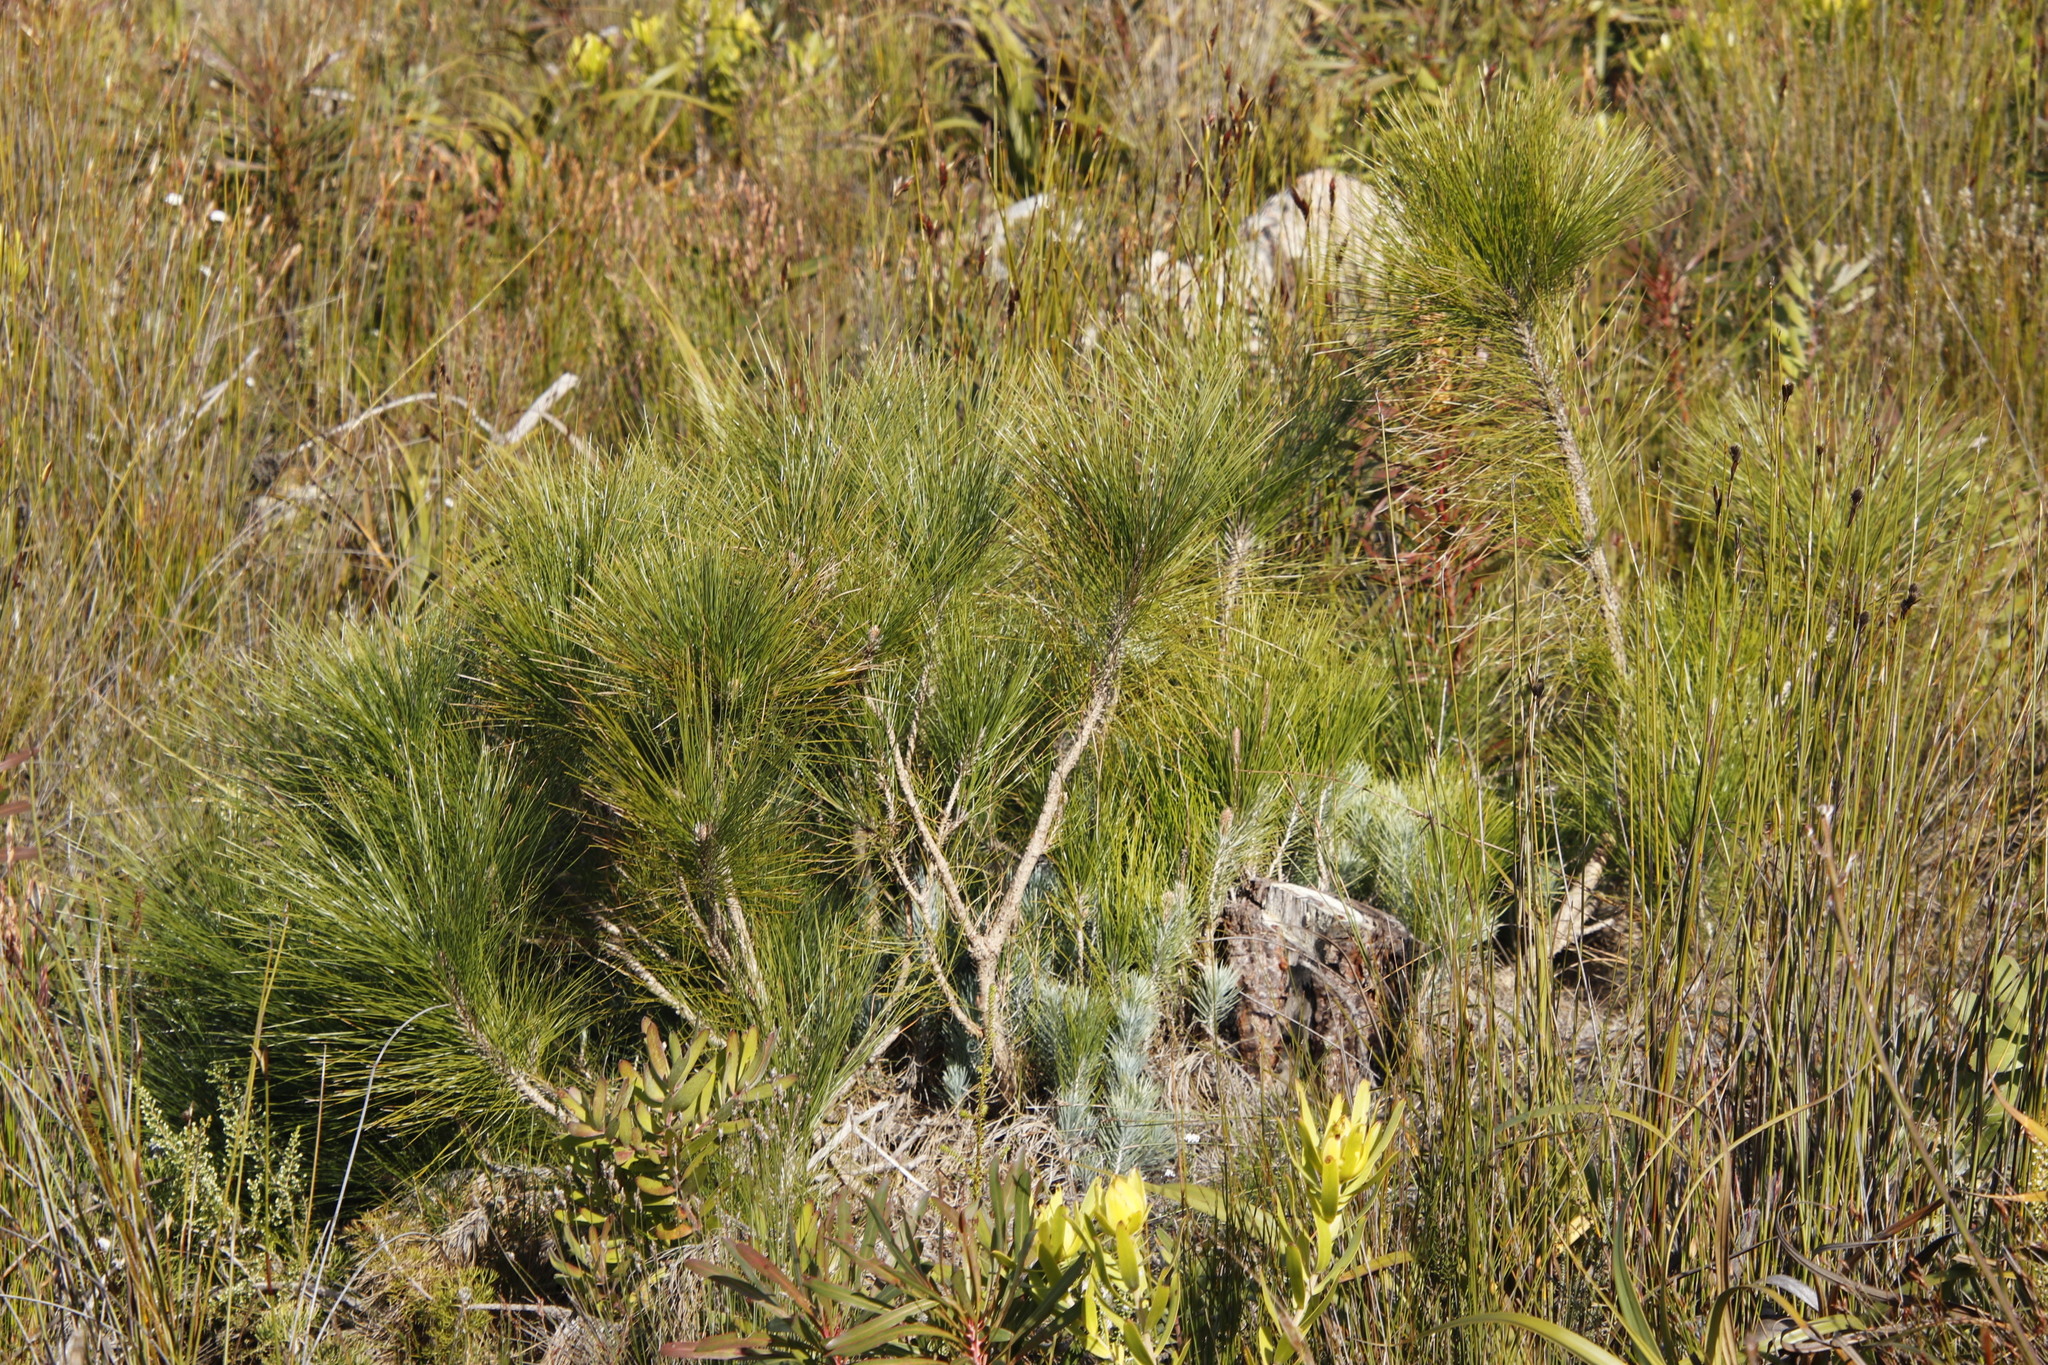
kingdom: Plantae
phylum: Tracheophyta
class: Pinopsida
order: Pinales
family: Pinaceae
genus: Pinus
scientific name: Pinus canariensis
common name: Canary islands pine
